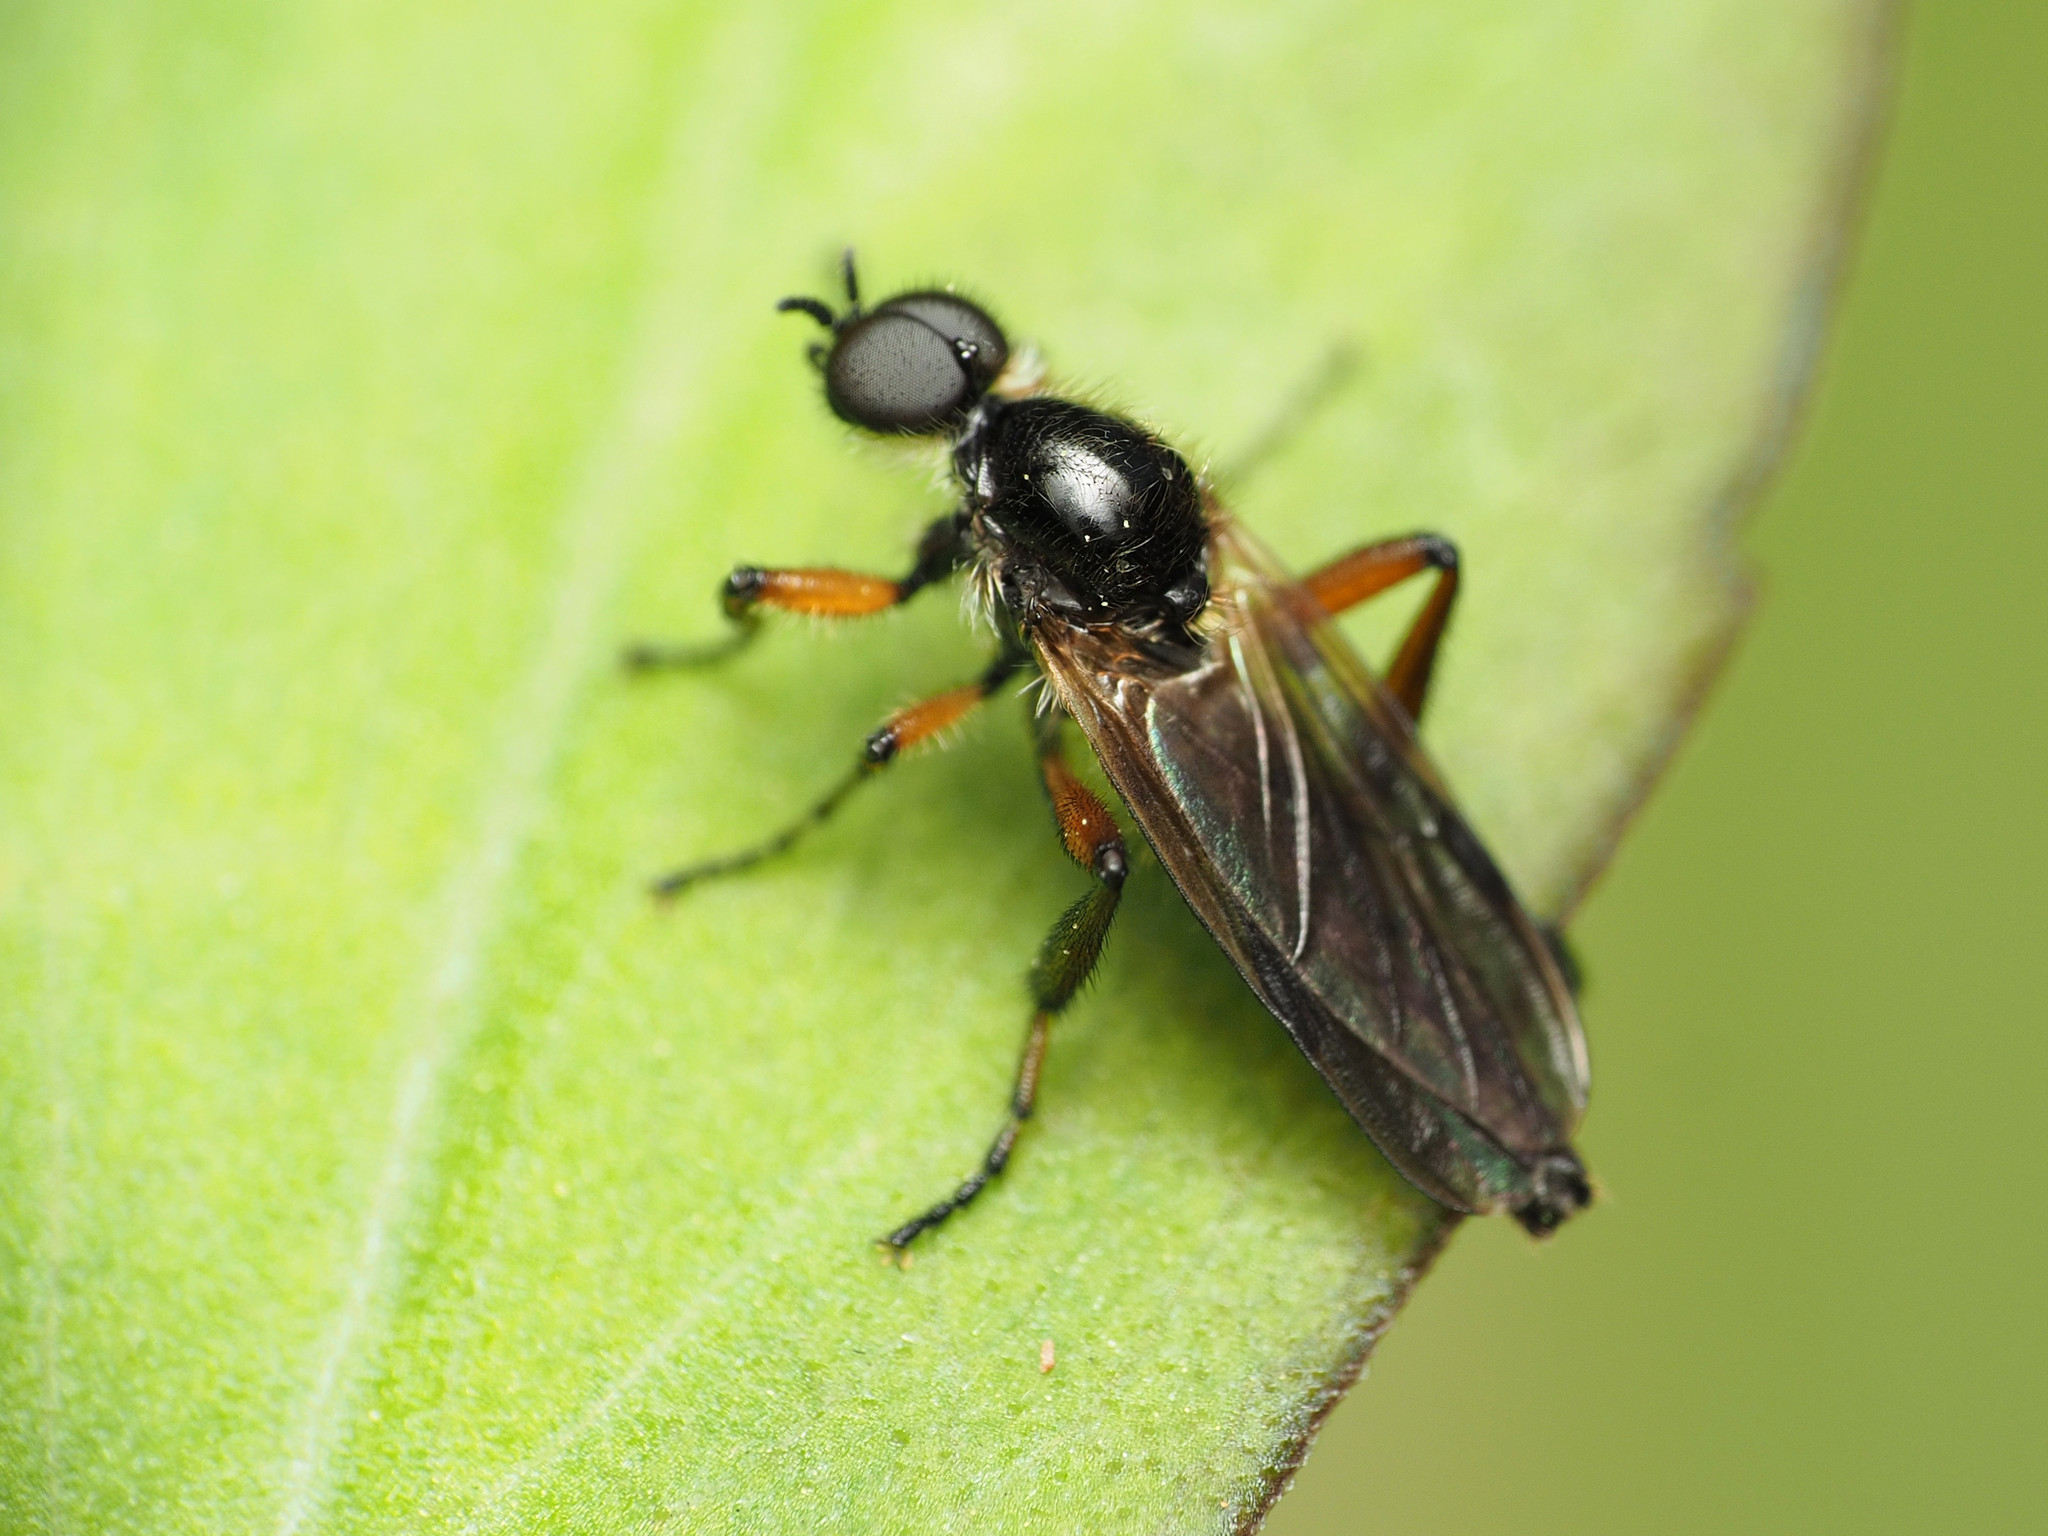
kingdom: Animalia
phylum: Arthropoda
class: Insecta
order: Diptera
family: Bibionidae
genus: Bibio
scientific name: Bibio articulatus
